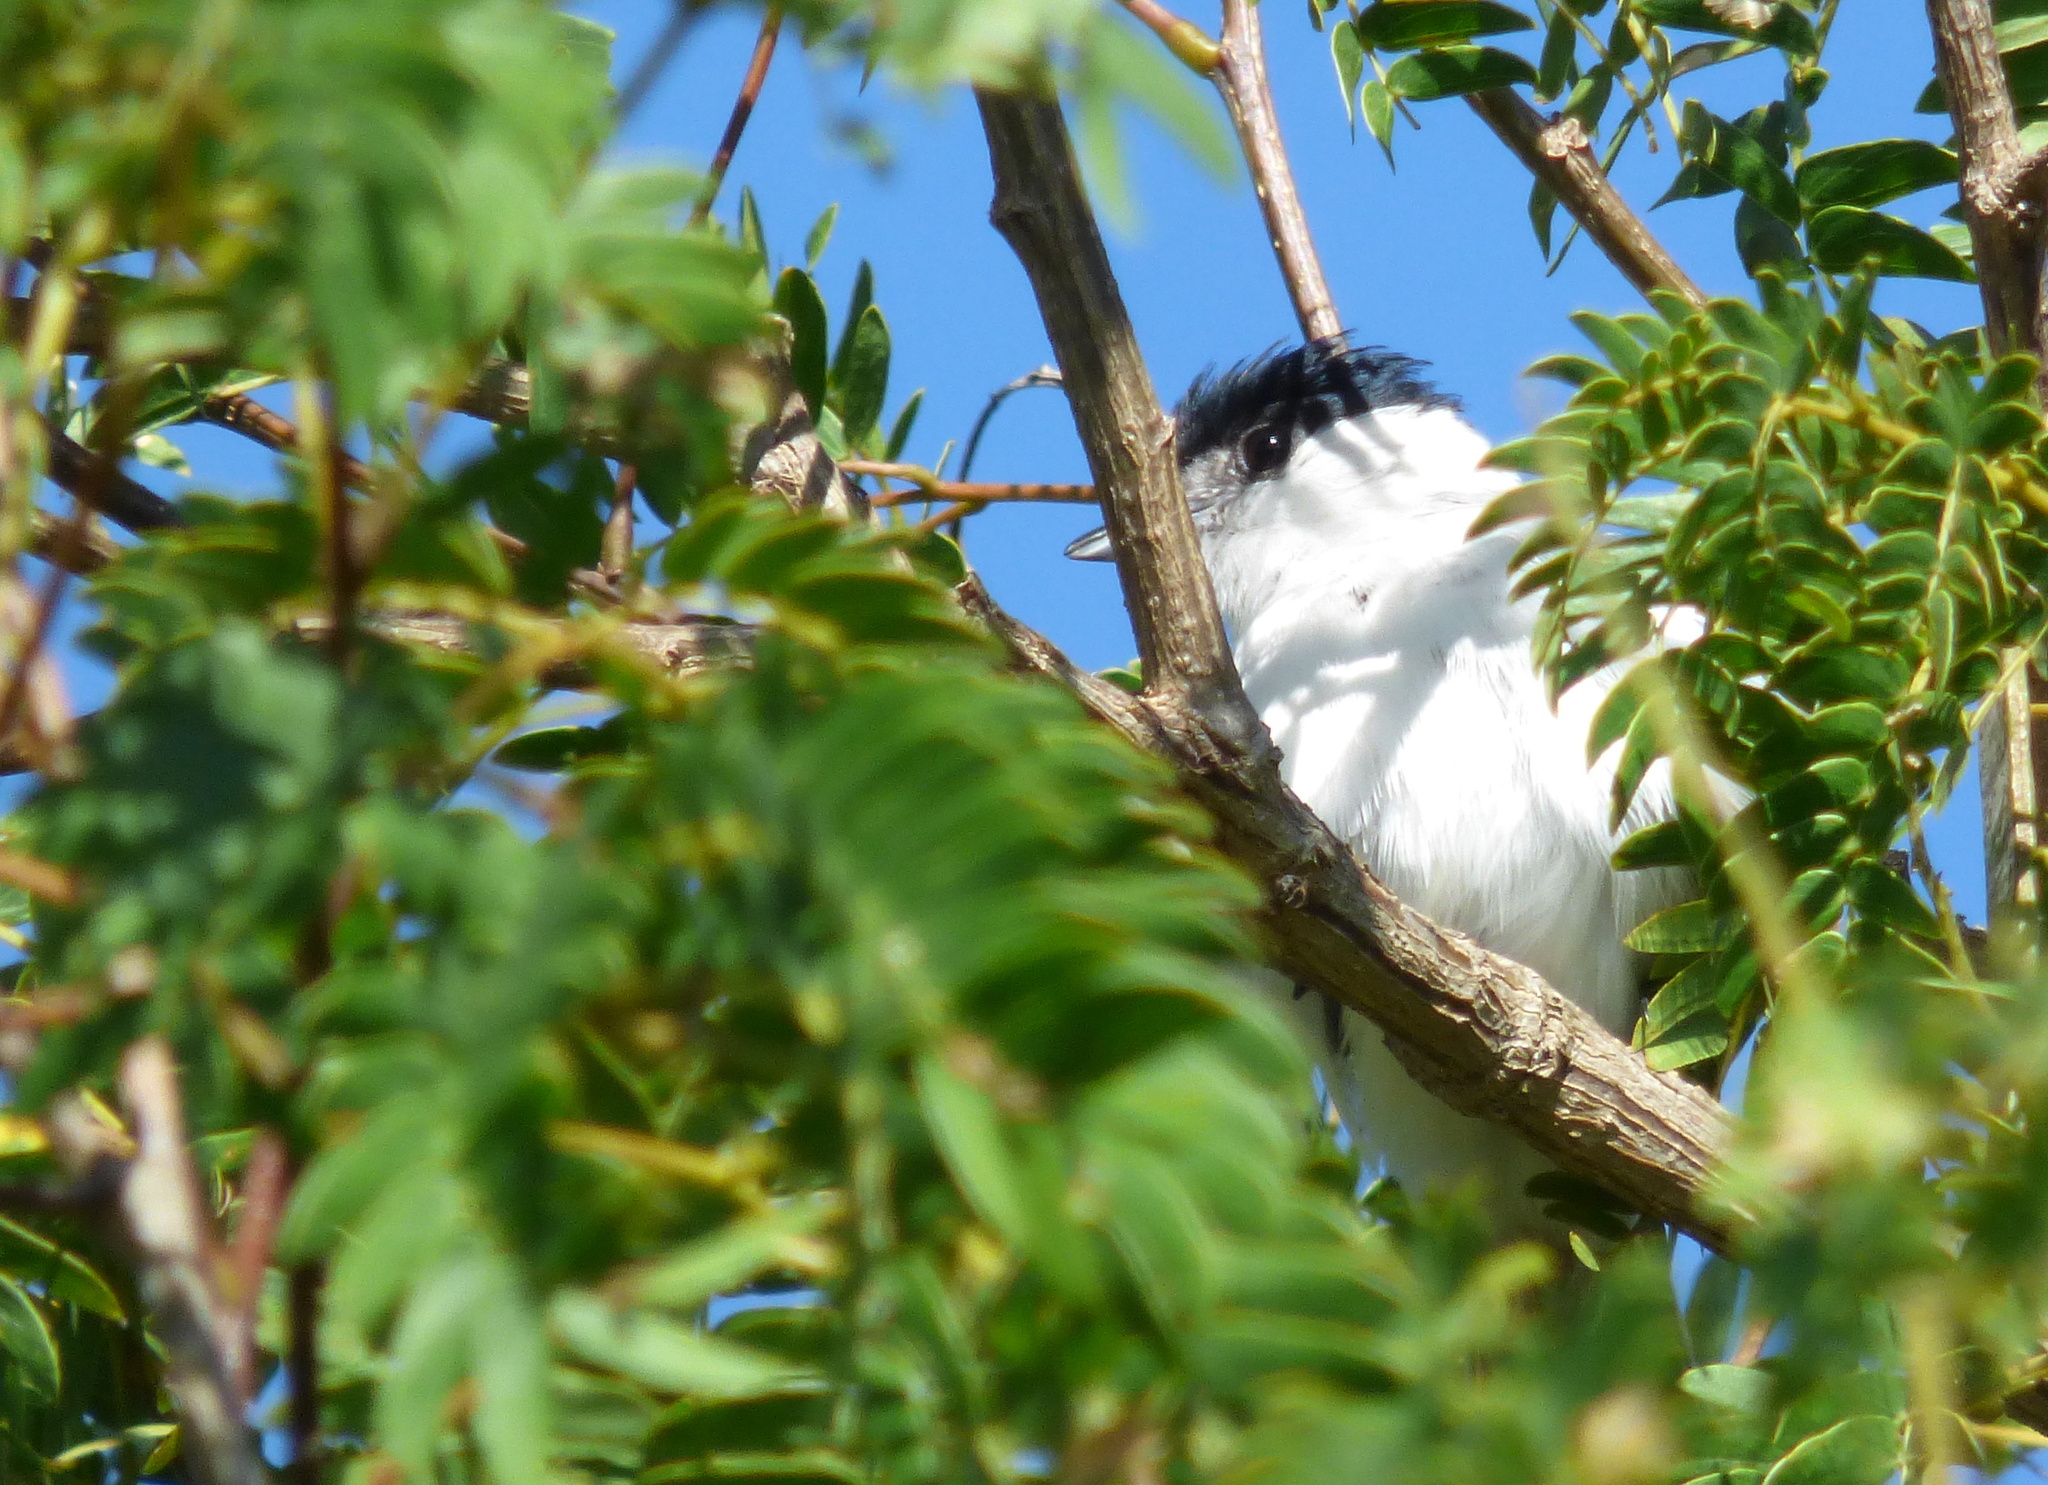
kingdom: Animalia
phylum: Chordata
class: Aves
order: Passeriformes
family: Cotingidae
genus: Xenopsaris
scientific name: Xenopsaris albinucha
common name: White-naped xenopsaris
